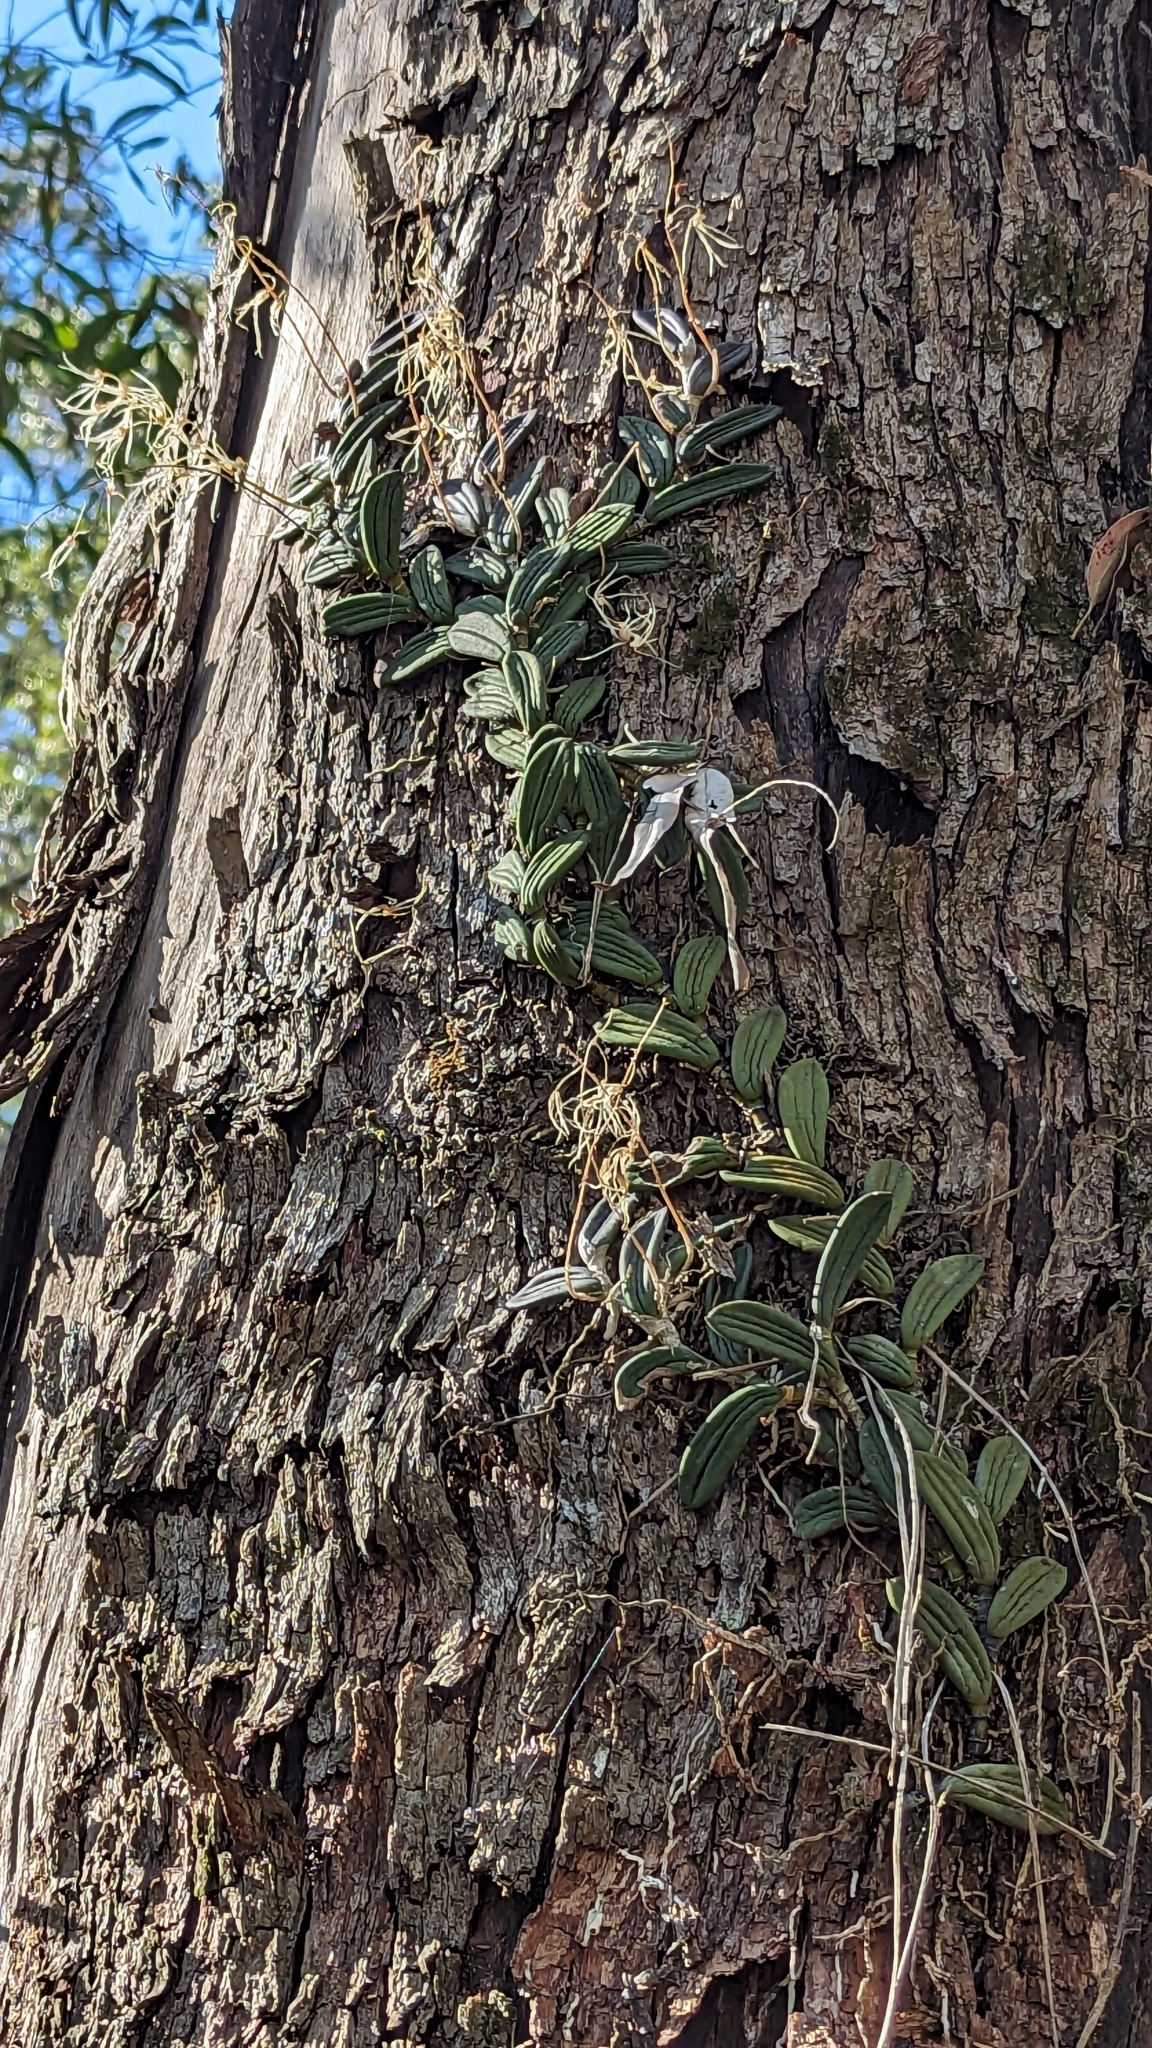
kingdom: Plantae
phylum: Tracheophyta
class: Liliopsida
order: Asparagales
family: Orchidaceae
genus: Dendrobium
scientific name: Dendrobium linguiforme
